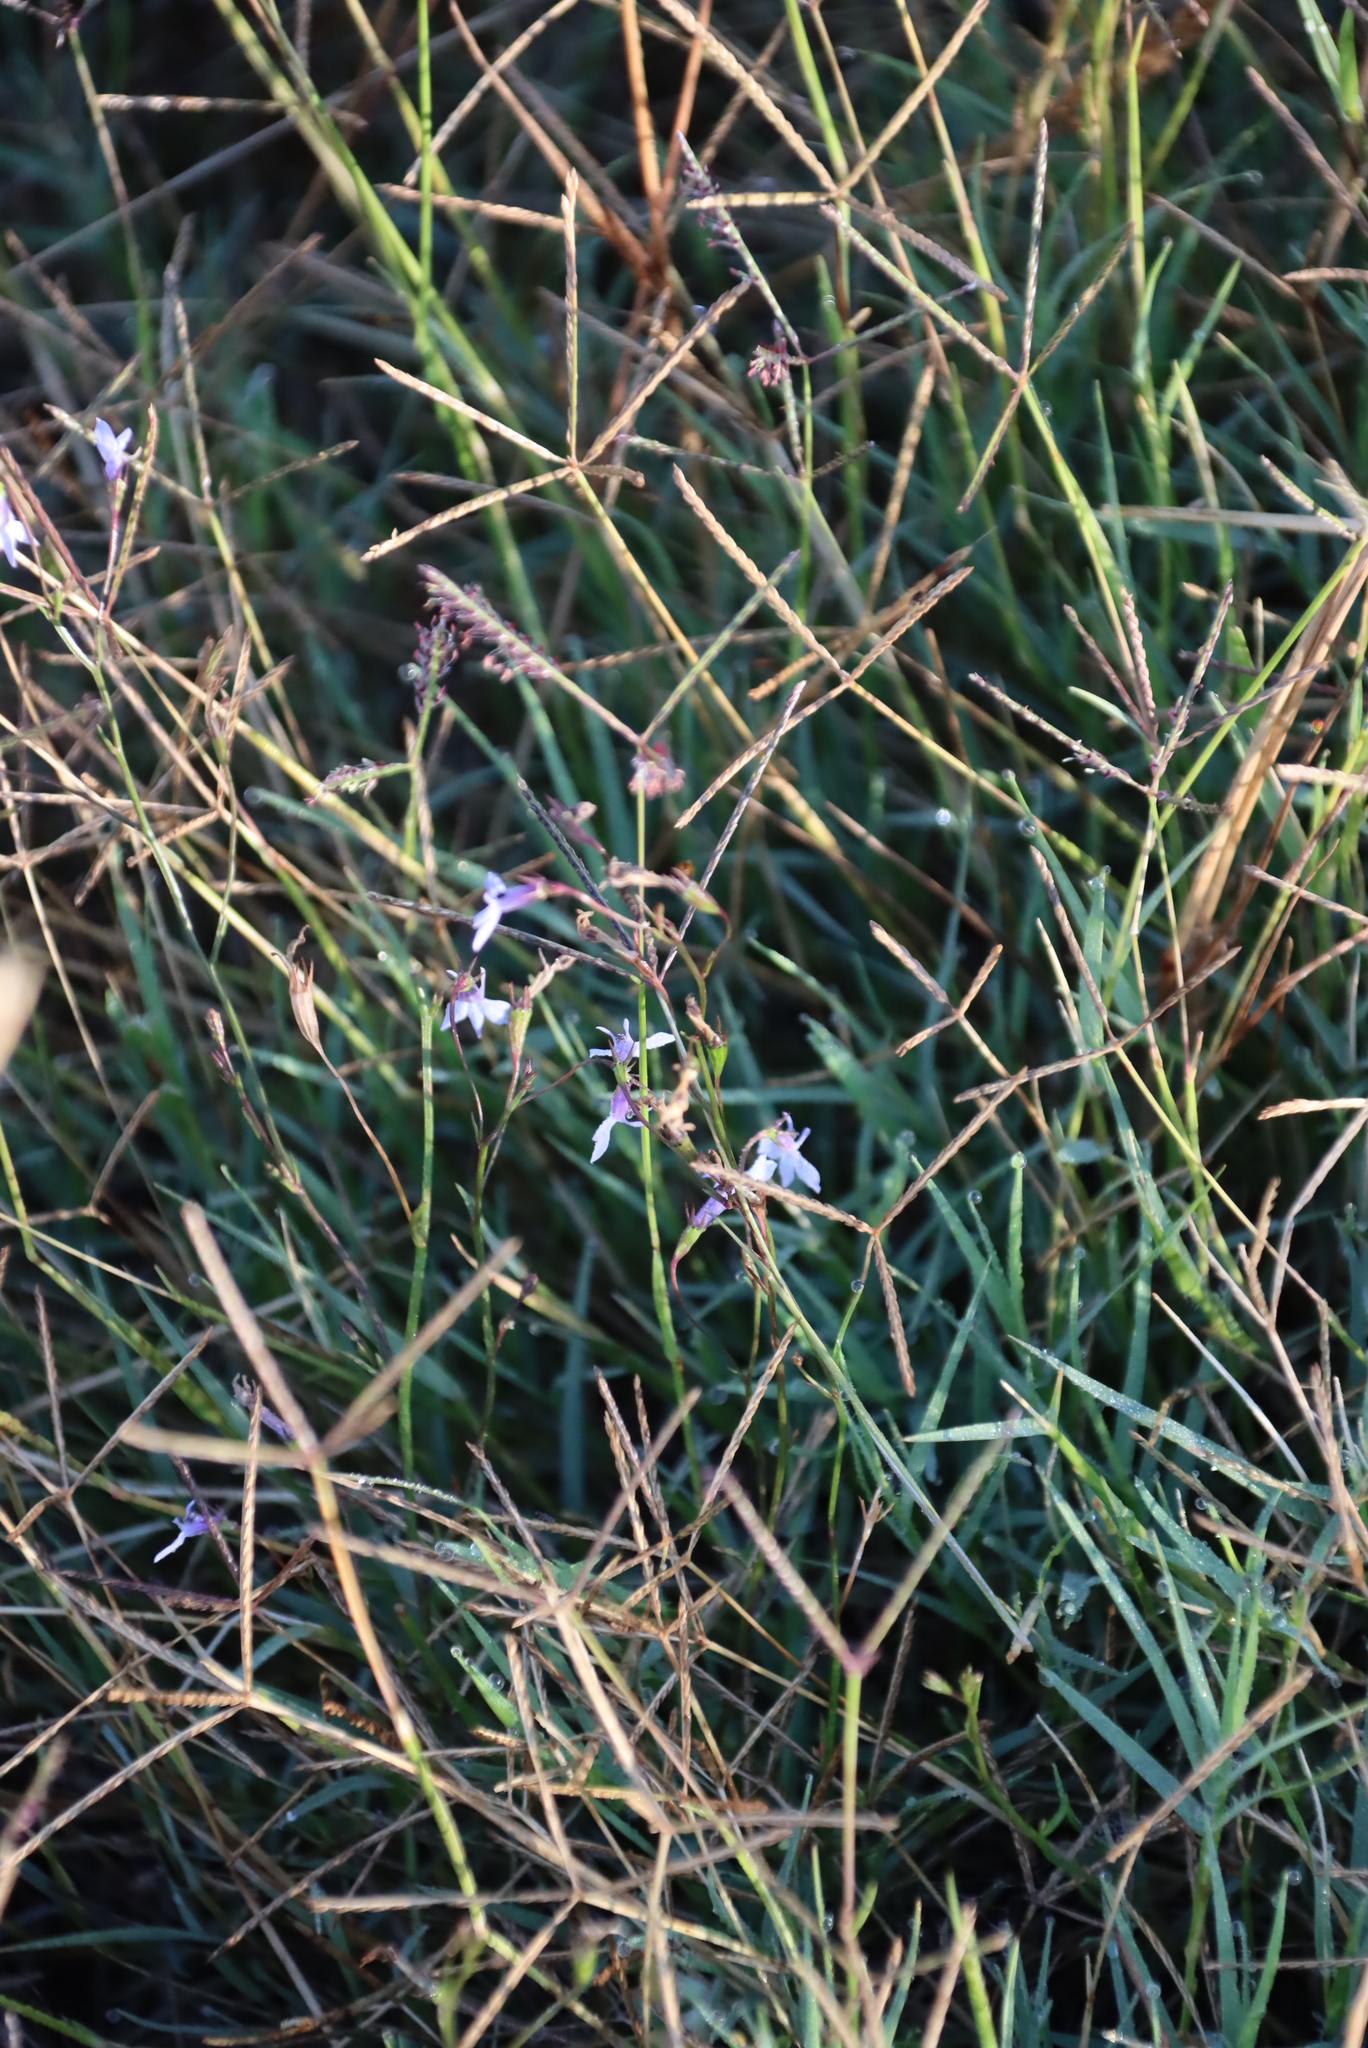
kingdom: Plantae
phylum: Tracheophyta
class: Magnoliopsida
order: Asterales
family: Campanulaceae
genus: Lobelia
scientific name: Lobelia erinus
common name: Edging lobelia
